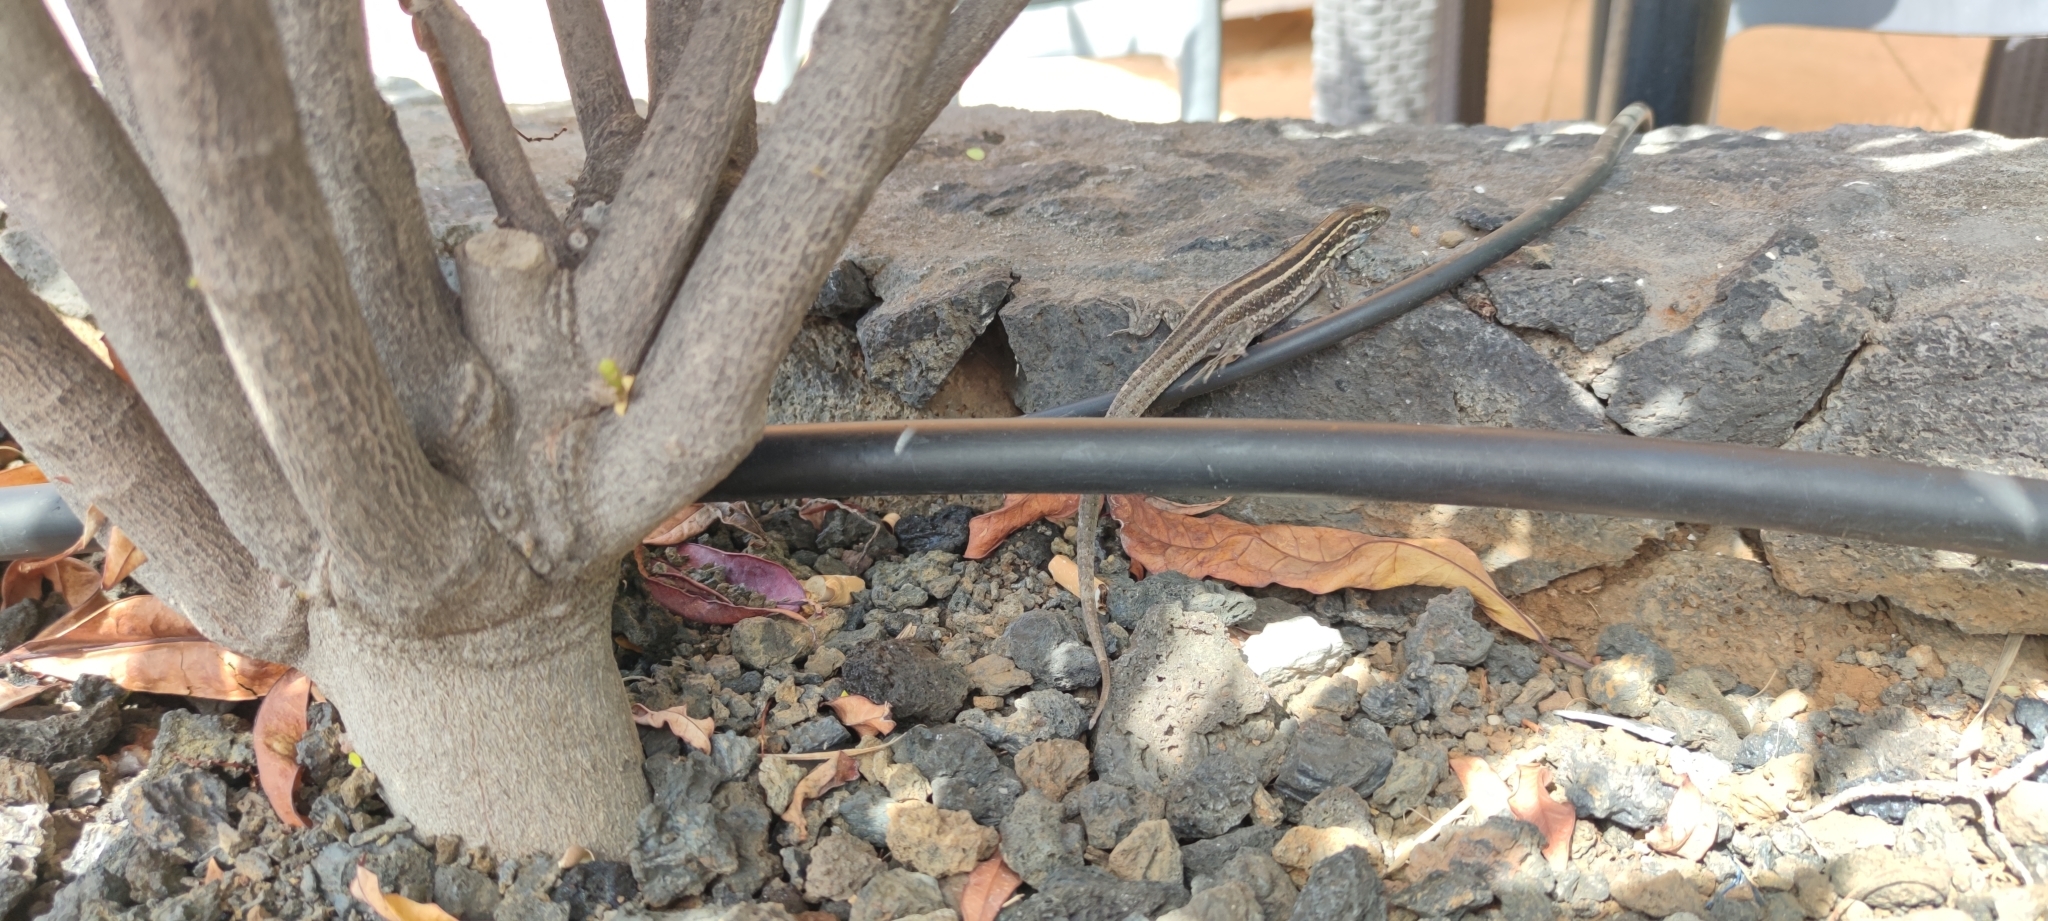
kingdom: Animalia
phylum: Chordata
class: Squamata
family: Lacertidae
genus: Gallotia
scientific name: Gallotia galloti
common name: Gallot's lizard
